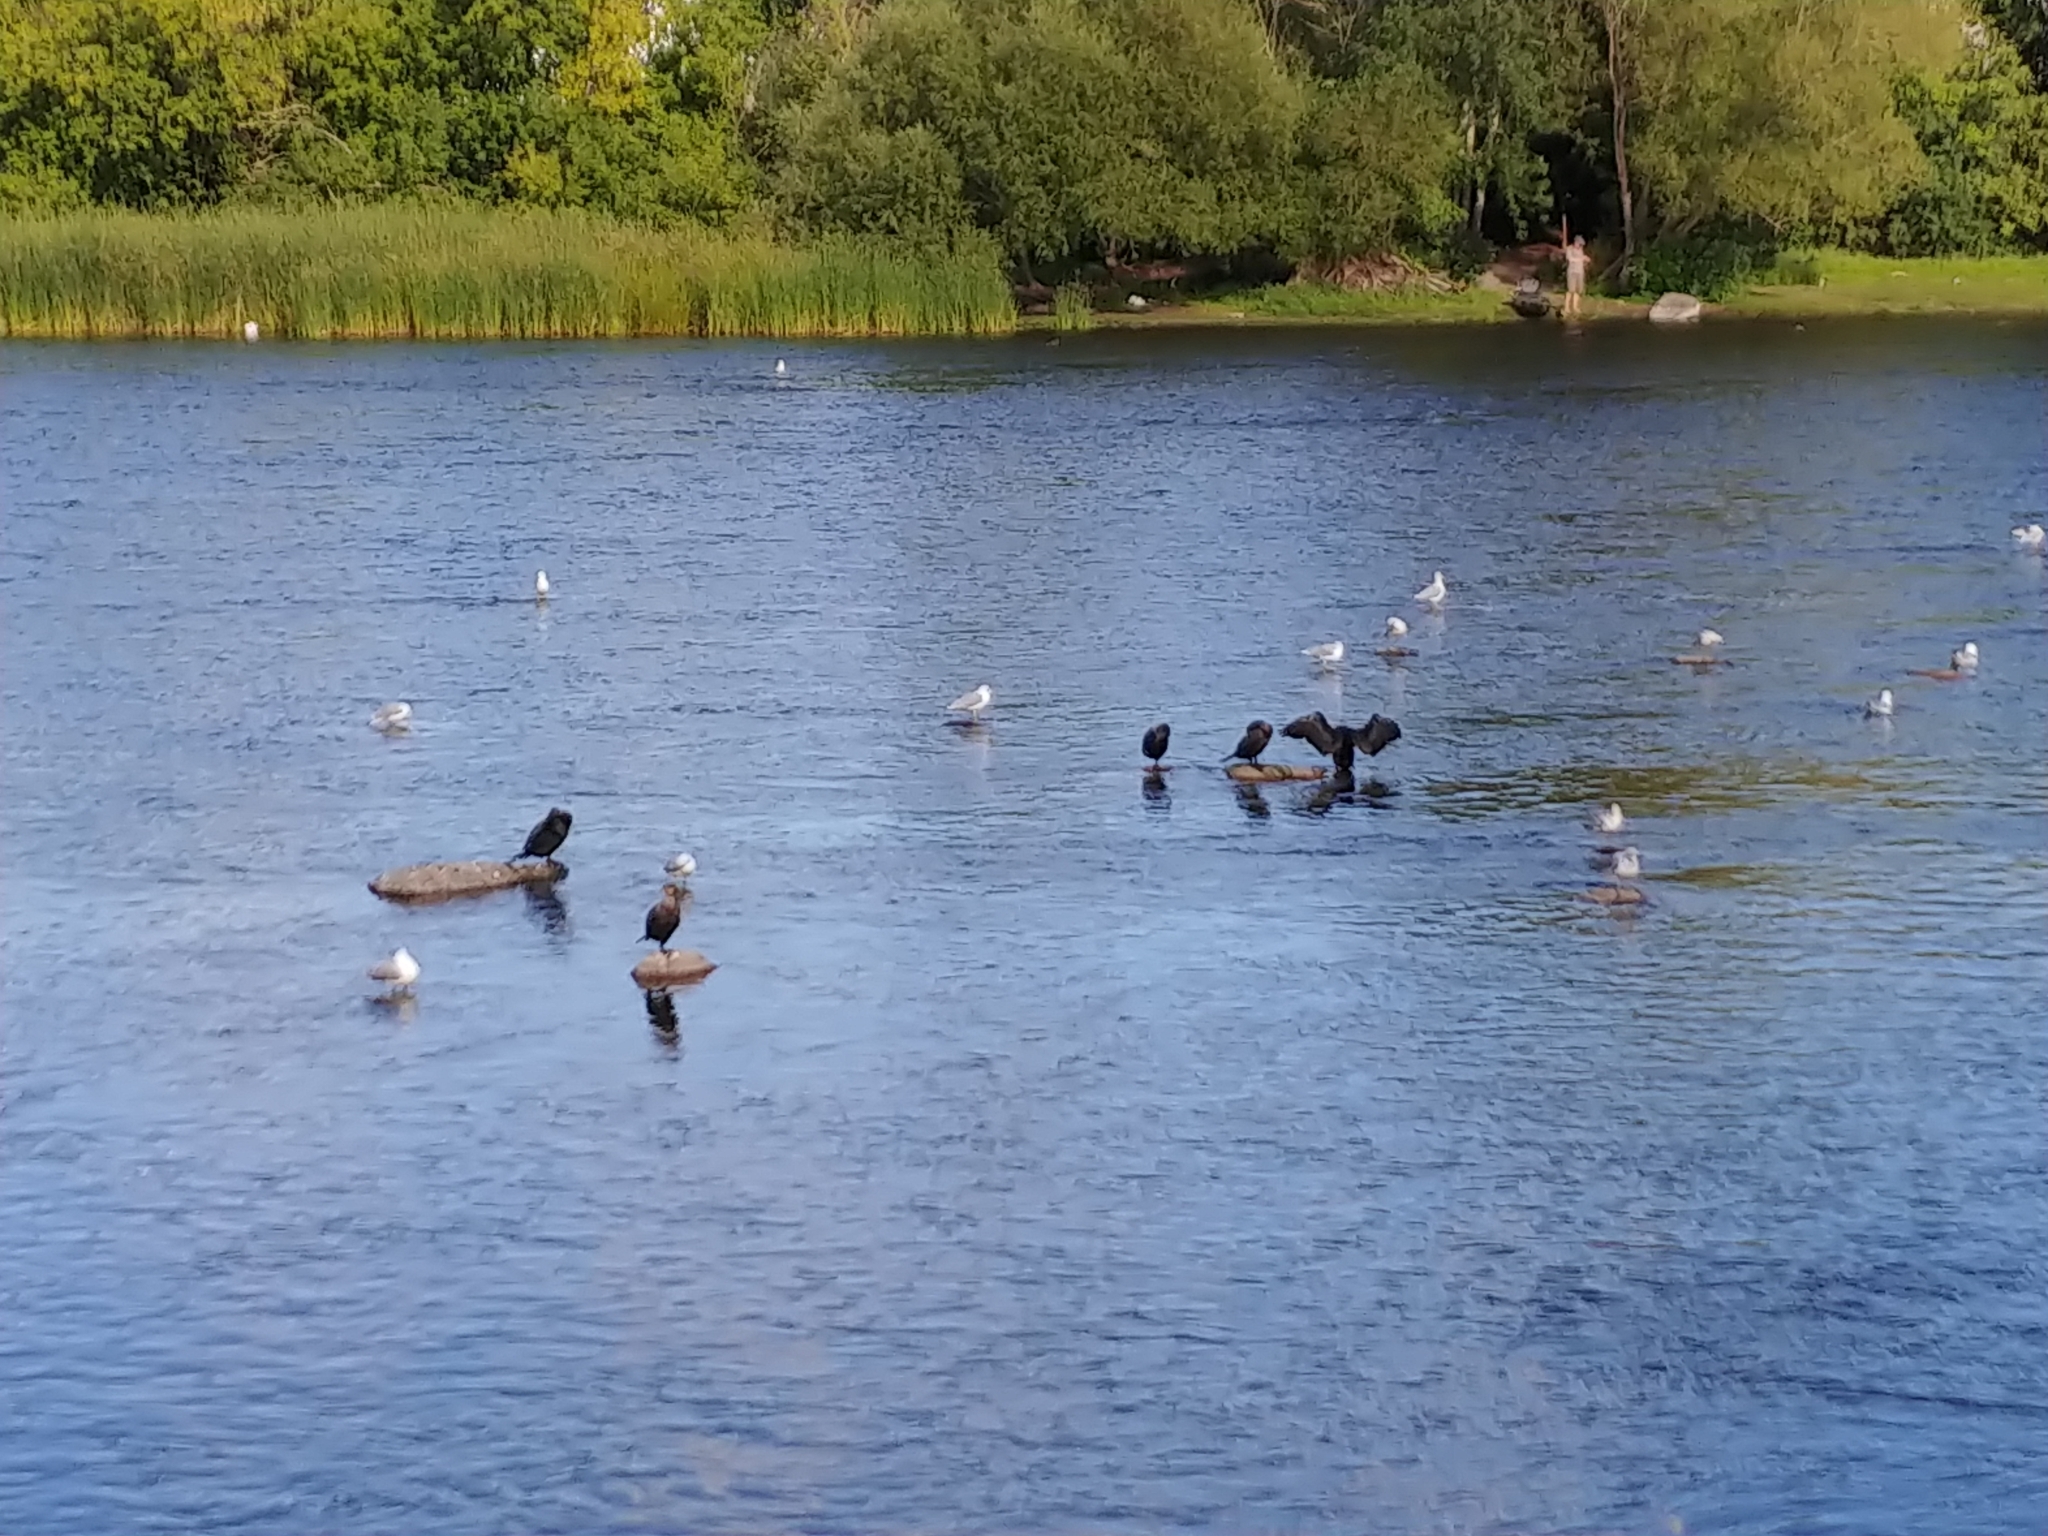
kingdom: Animalia
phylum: Chordata
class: Aves
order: Suliformes
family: Phalacrocoracidae
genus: Phalacrocorax
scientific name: Phalacrocorax auritus
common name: Double-crested cormorant
